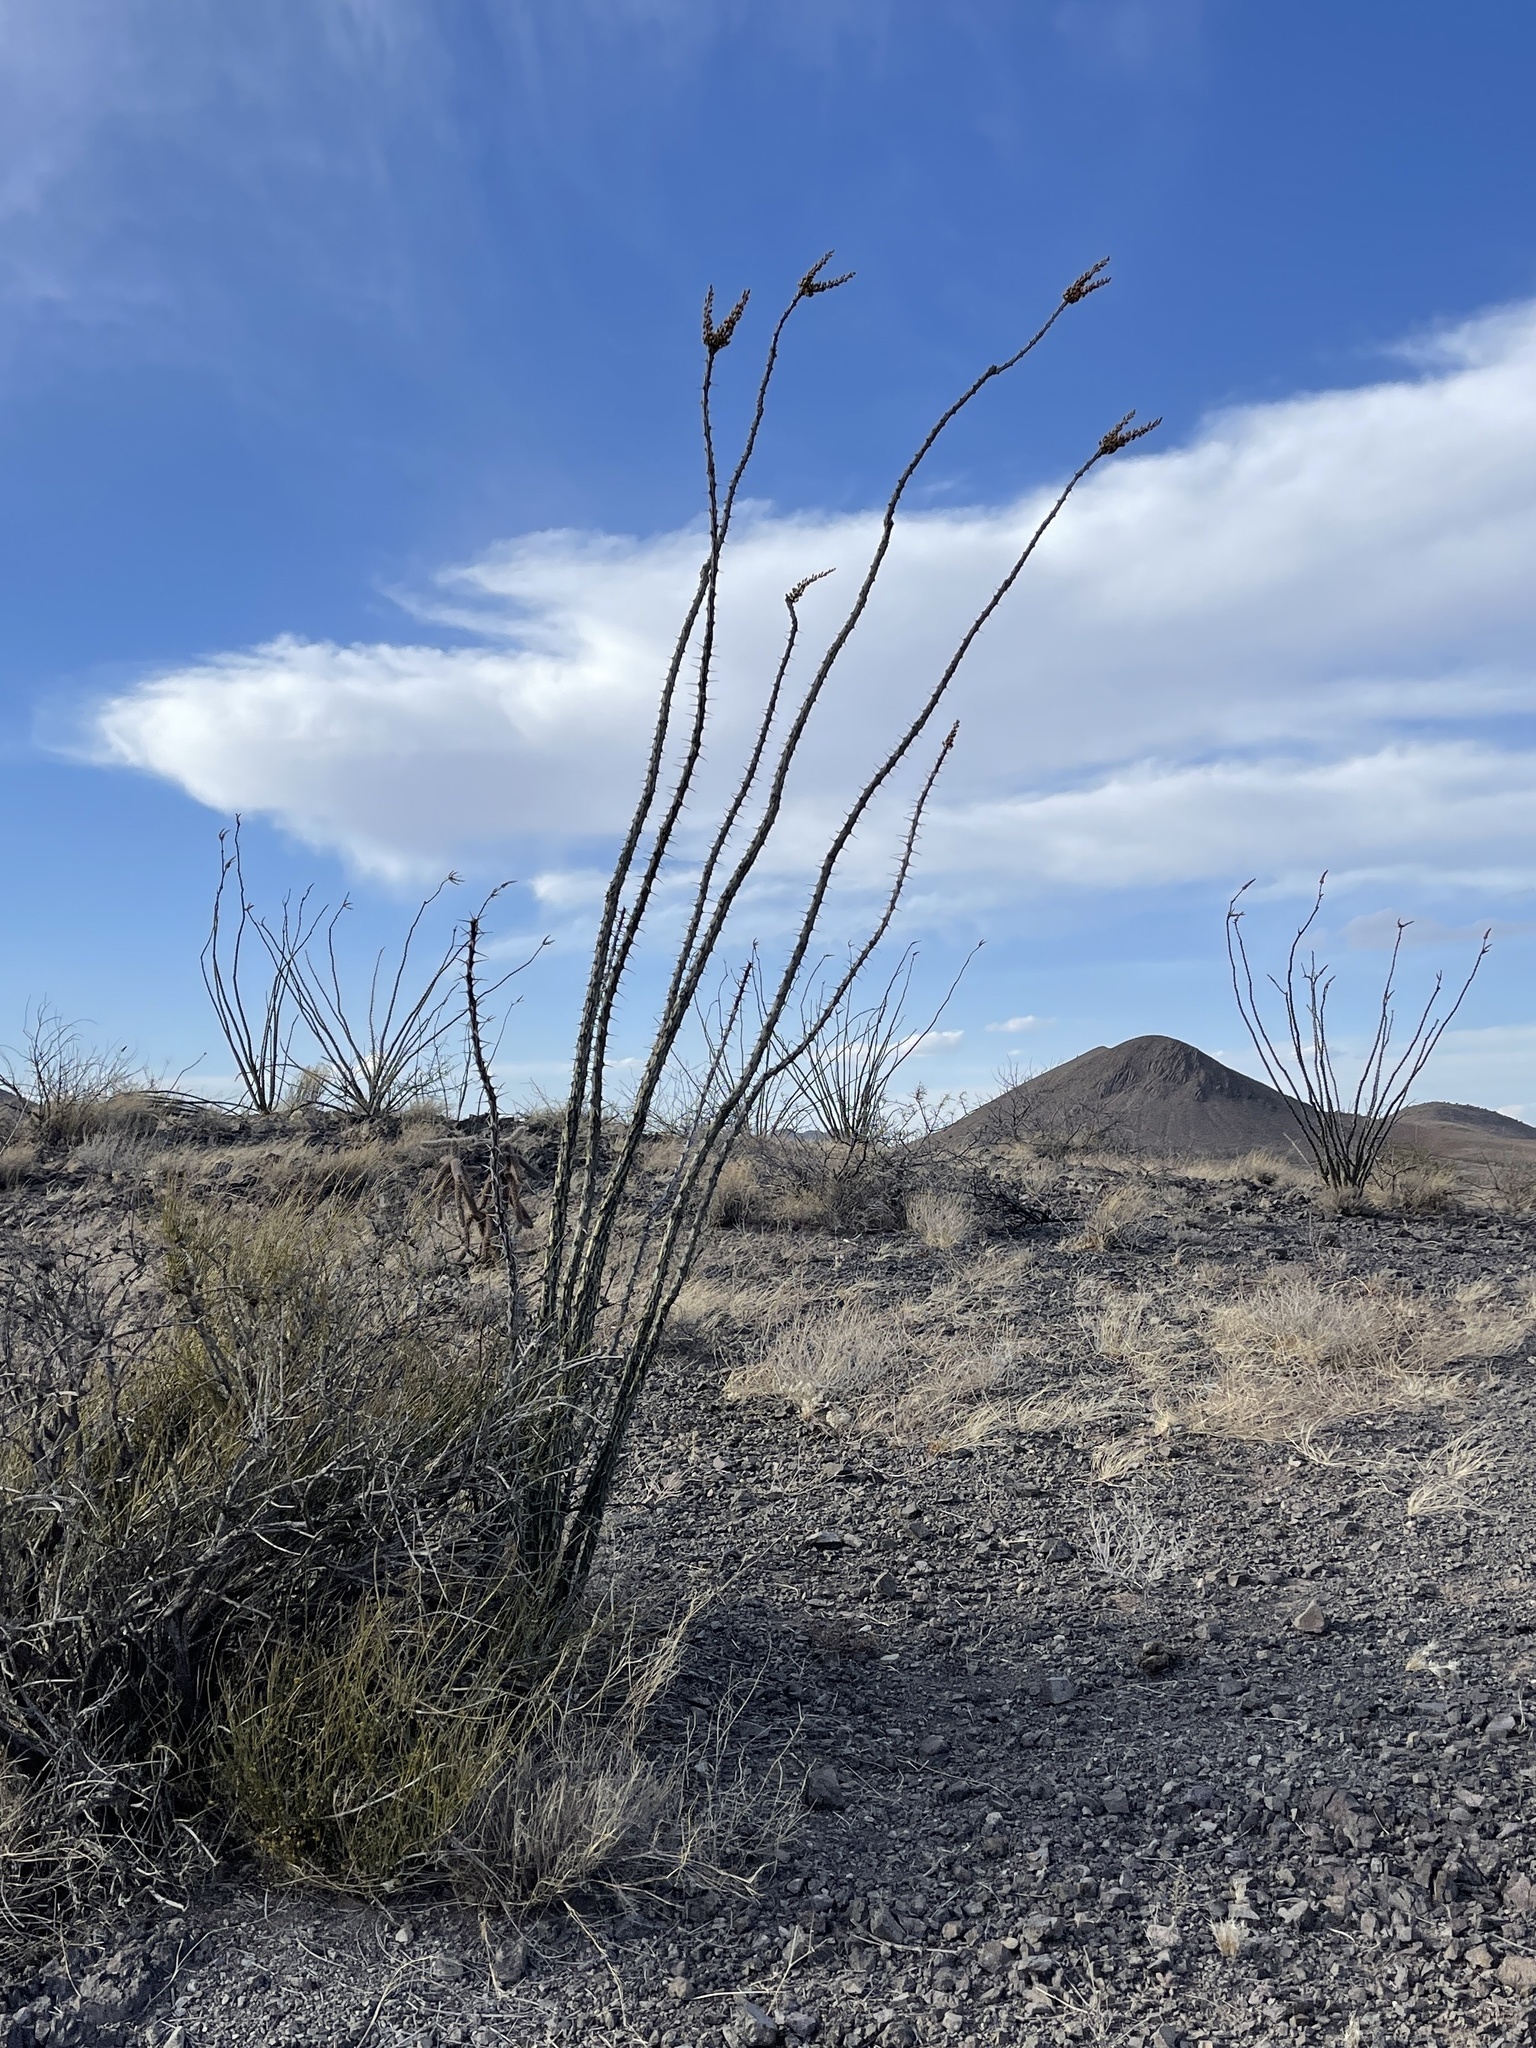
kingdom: Plantae
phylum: Tracheophyta
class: Magnoliopsida
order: Ericales
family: Fouquieriaceae
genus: Fouquieria
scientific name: Fouquieria splendens
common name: Vine-cactus
